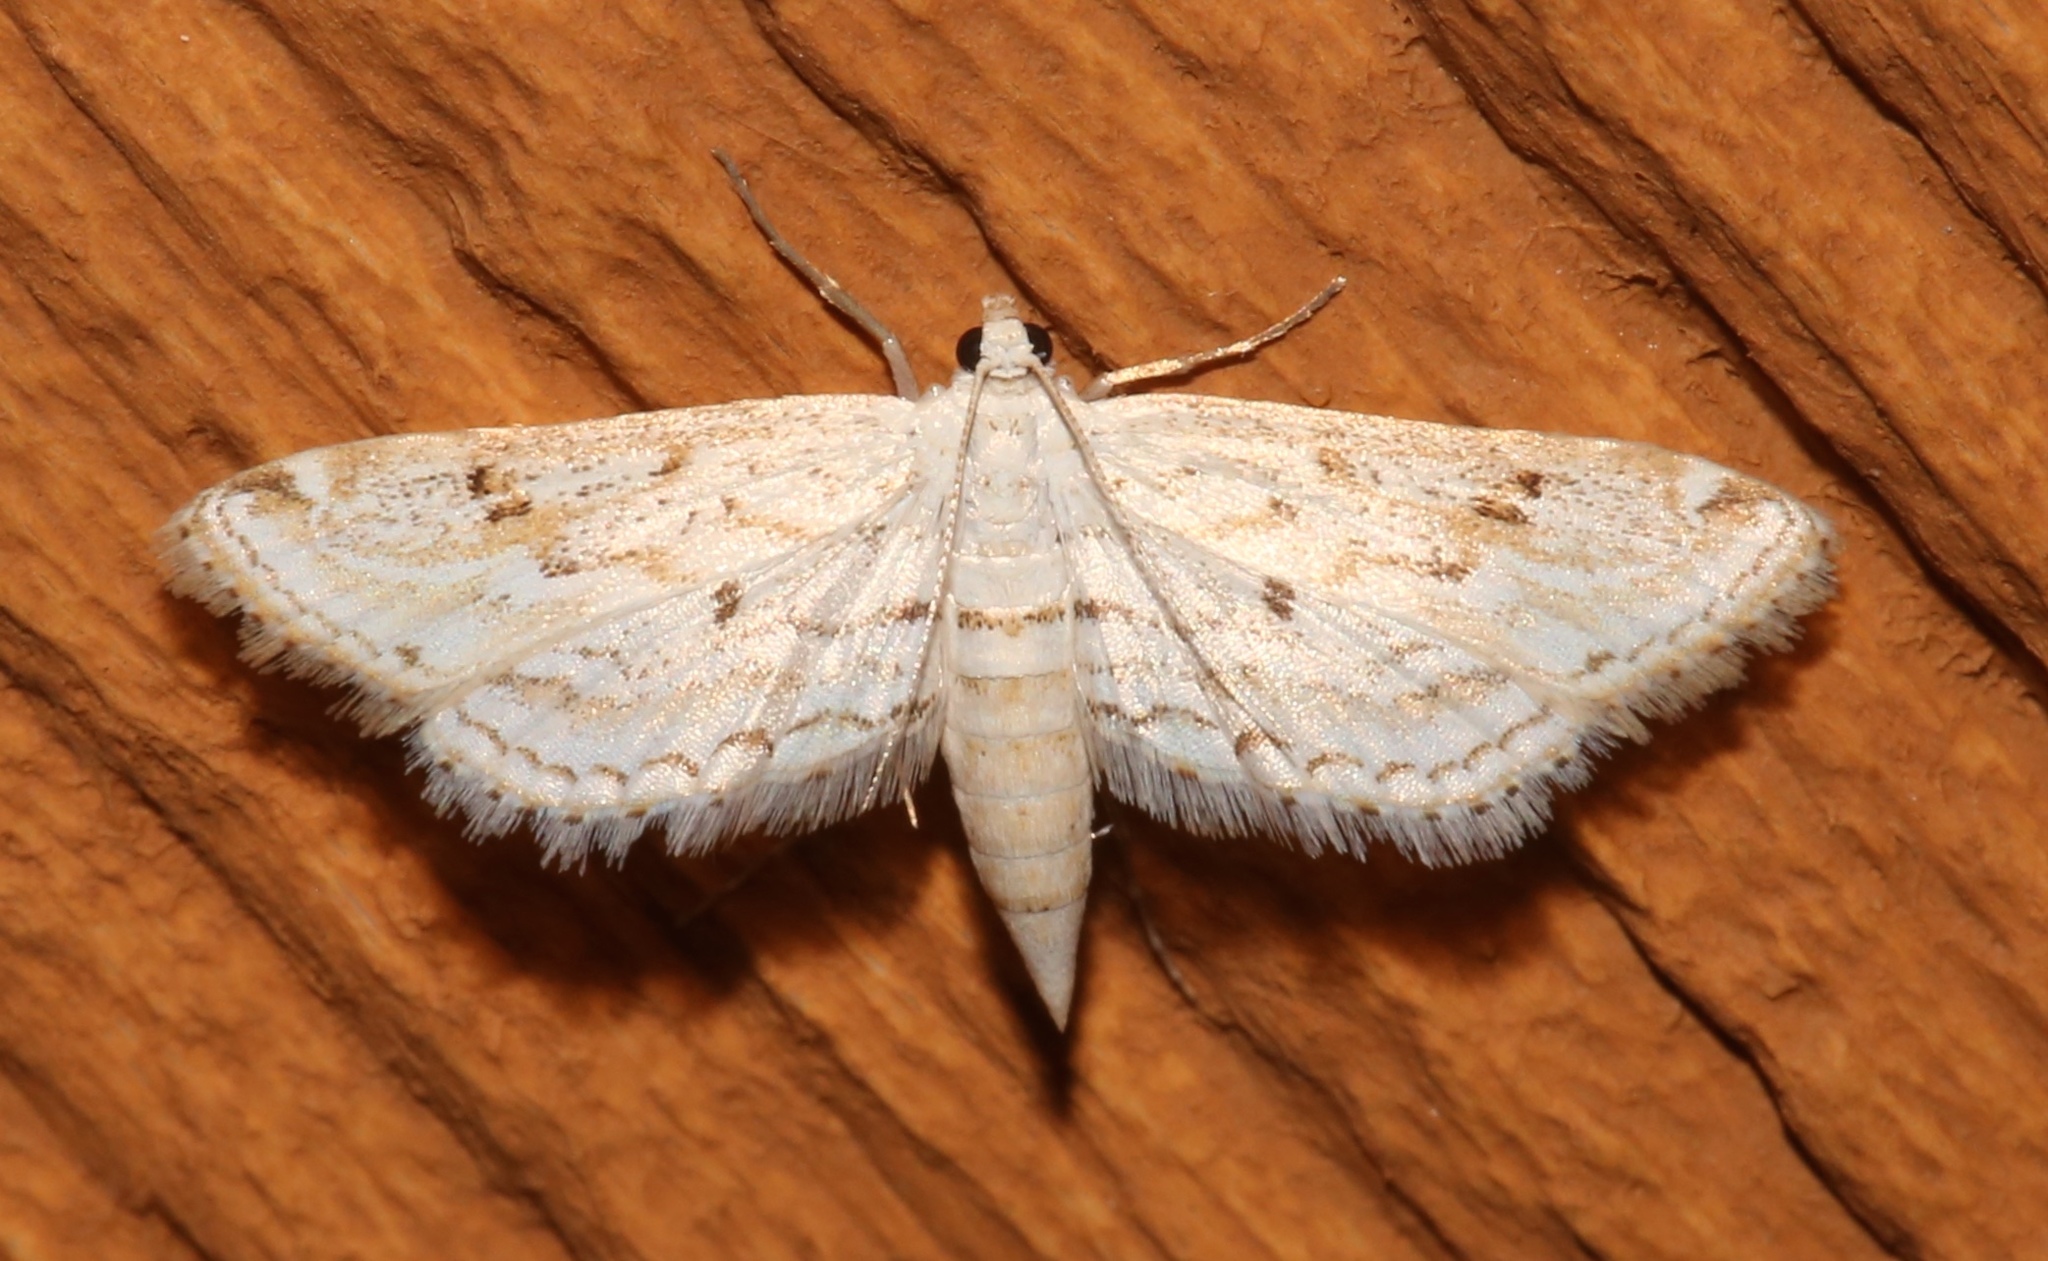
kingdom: Animalia
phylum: Arthropoda
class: Insecta
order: Lepidoptera
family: Crambidae
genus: Parapoynx
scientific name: Parapoynx allionealis
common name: Bladderwort casemaker
